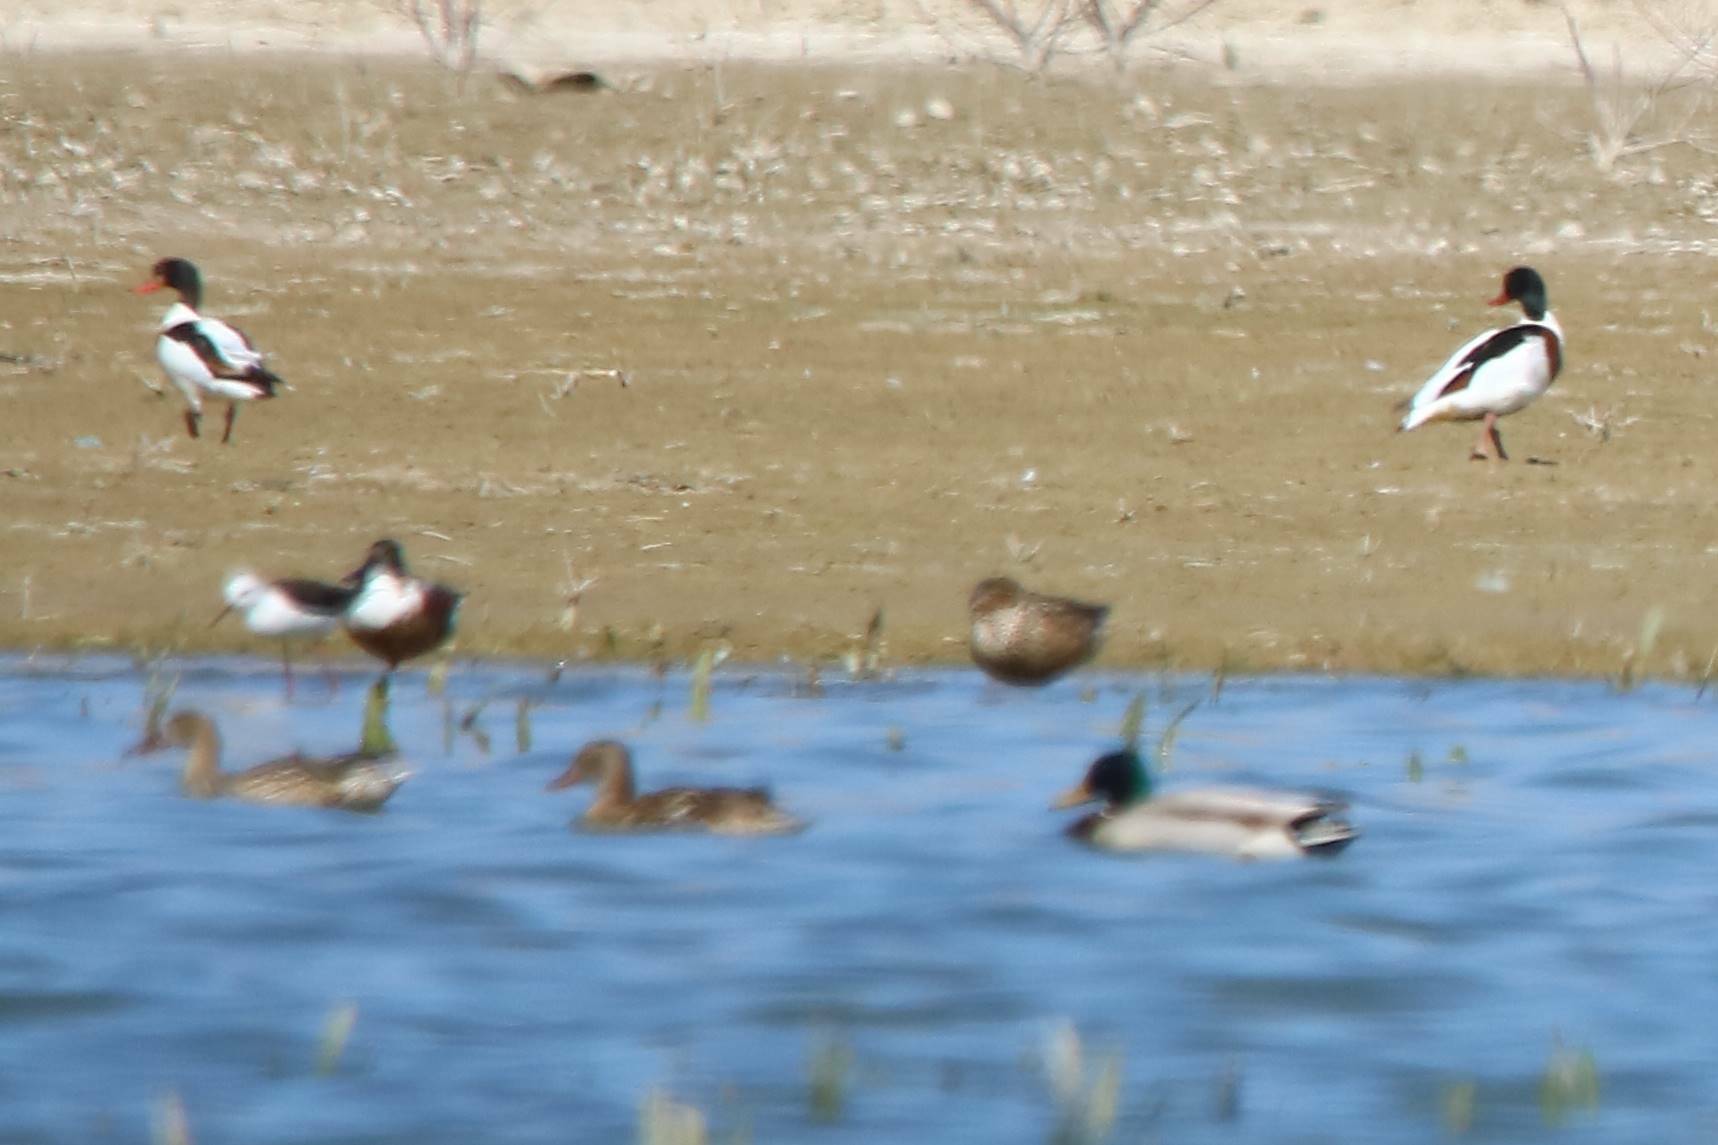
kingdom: Animalia
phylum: Chordata
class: Aves
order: Anseriformes
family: Anatidae
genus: Tadorna
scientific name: Tadorna tadorna
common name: Common shelduck
